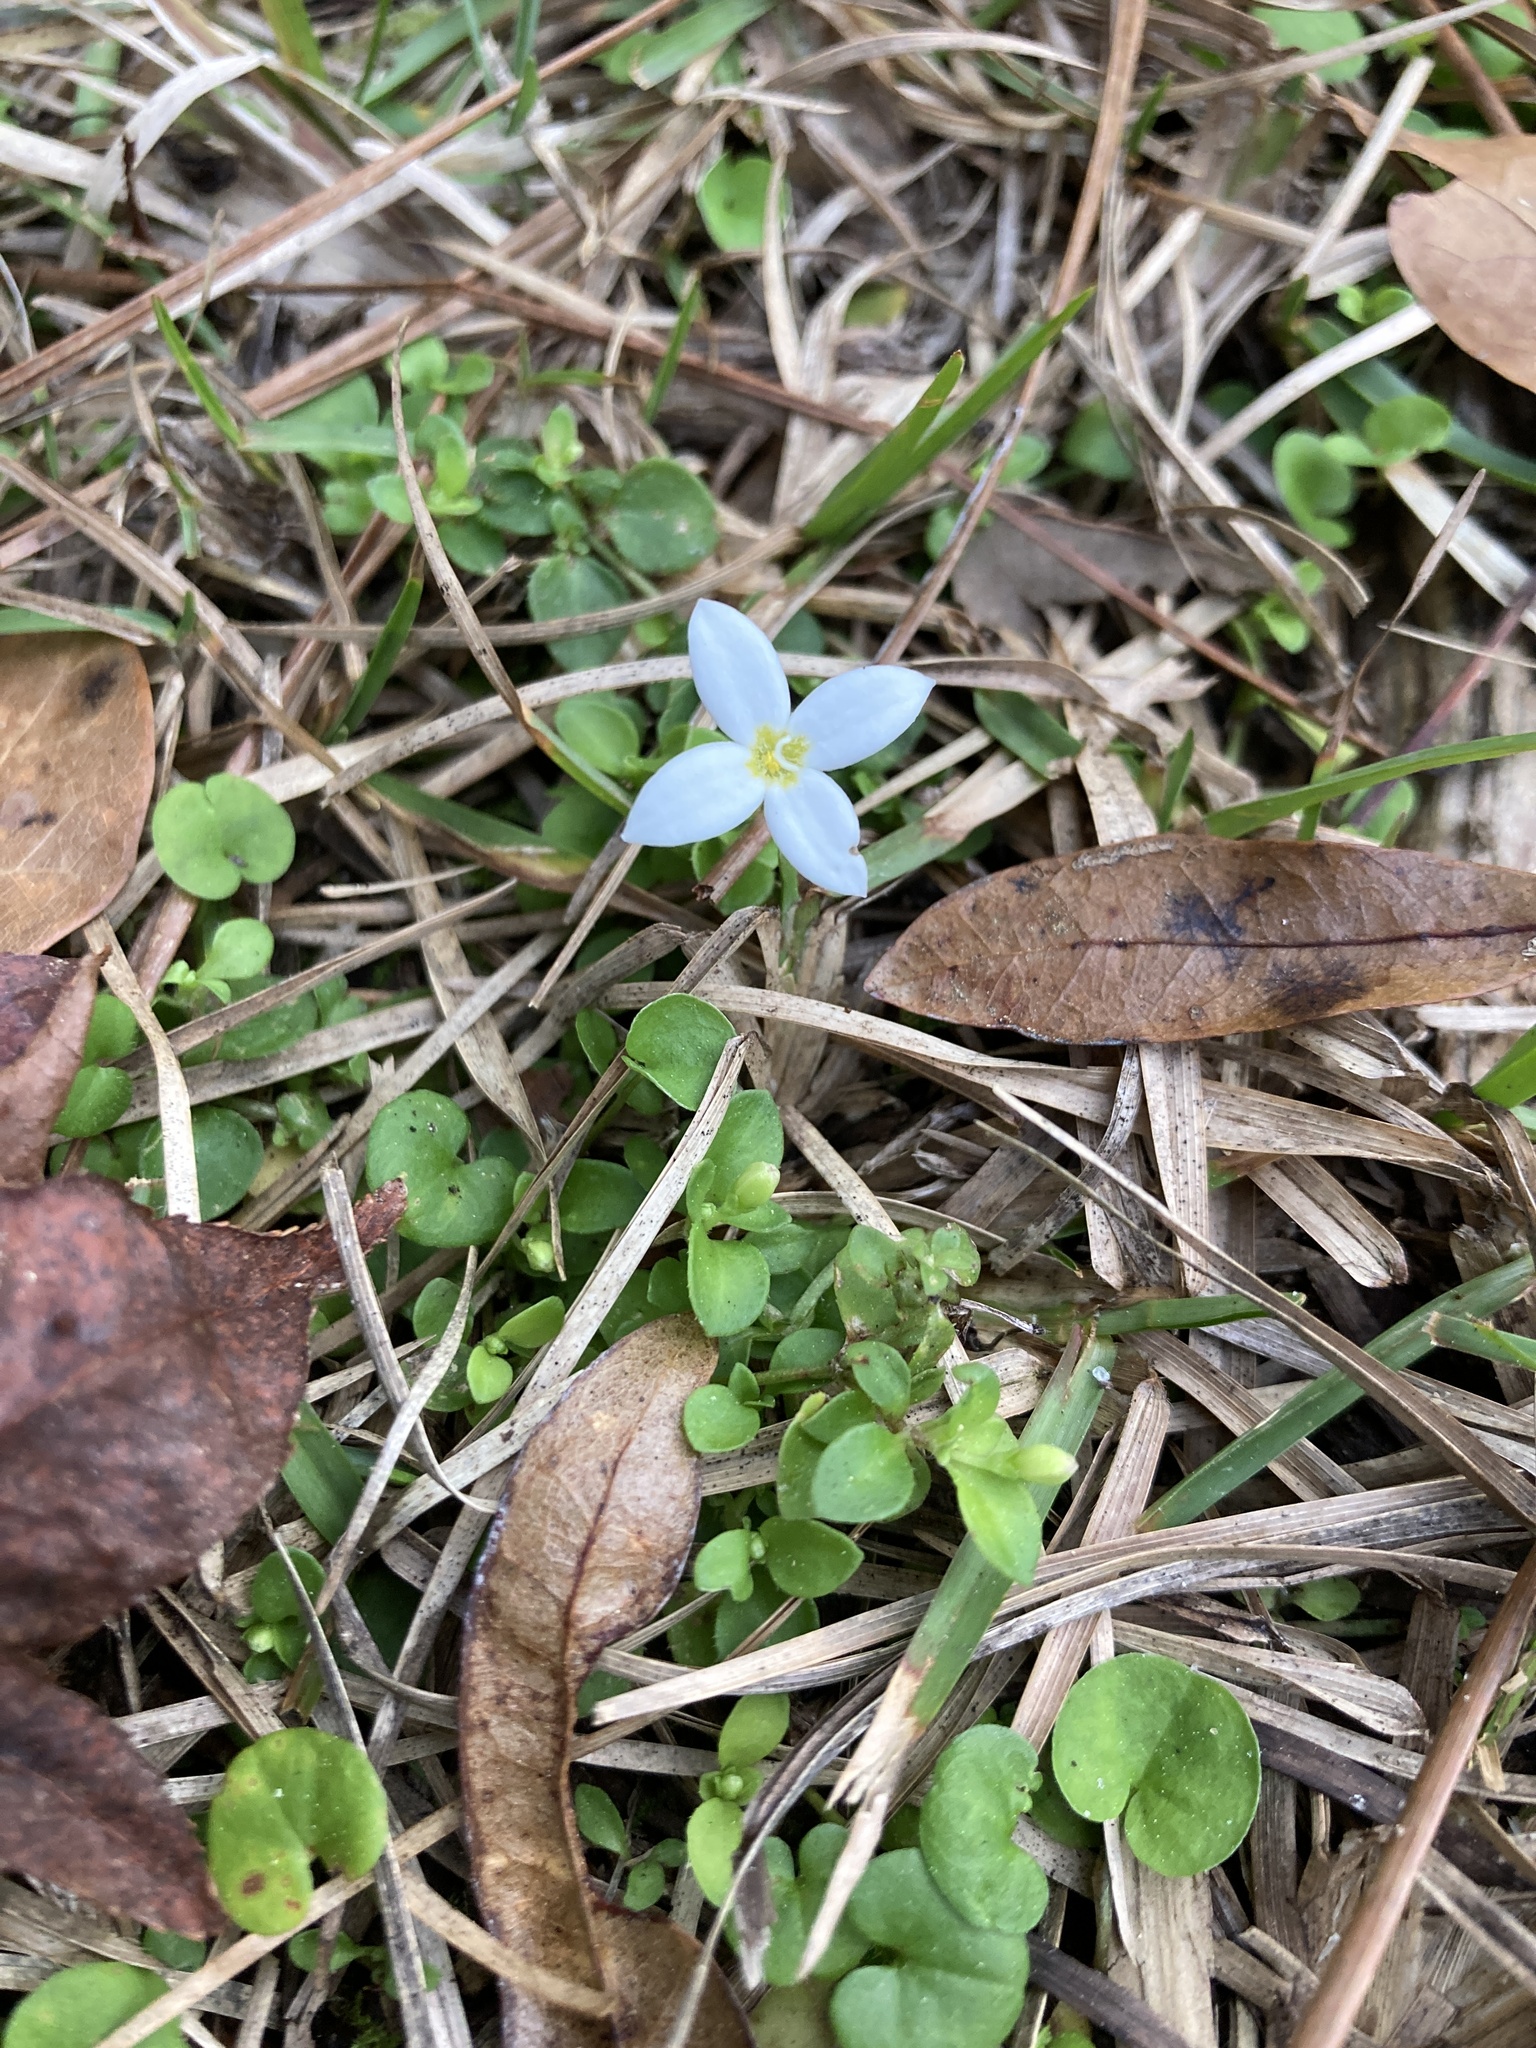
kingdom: Plantae
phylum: Tracheophyta
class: Magnoliopsida
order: Gentianales
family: Rubiaceae
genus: Houstonia
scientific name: Houstonia procumbens
